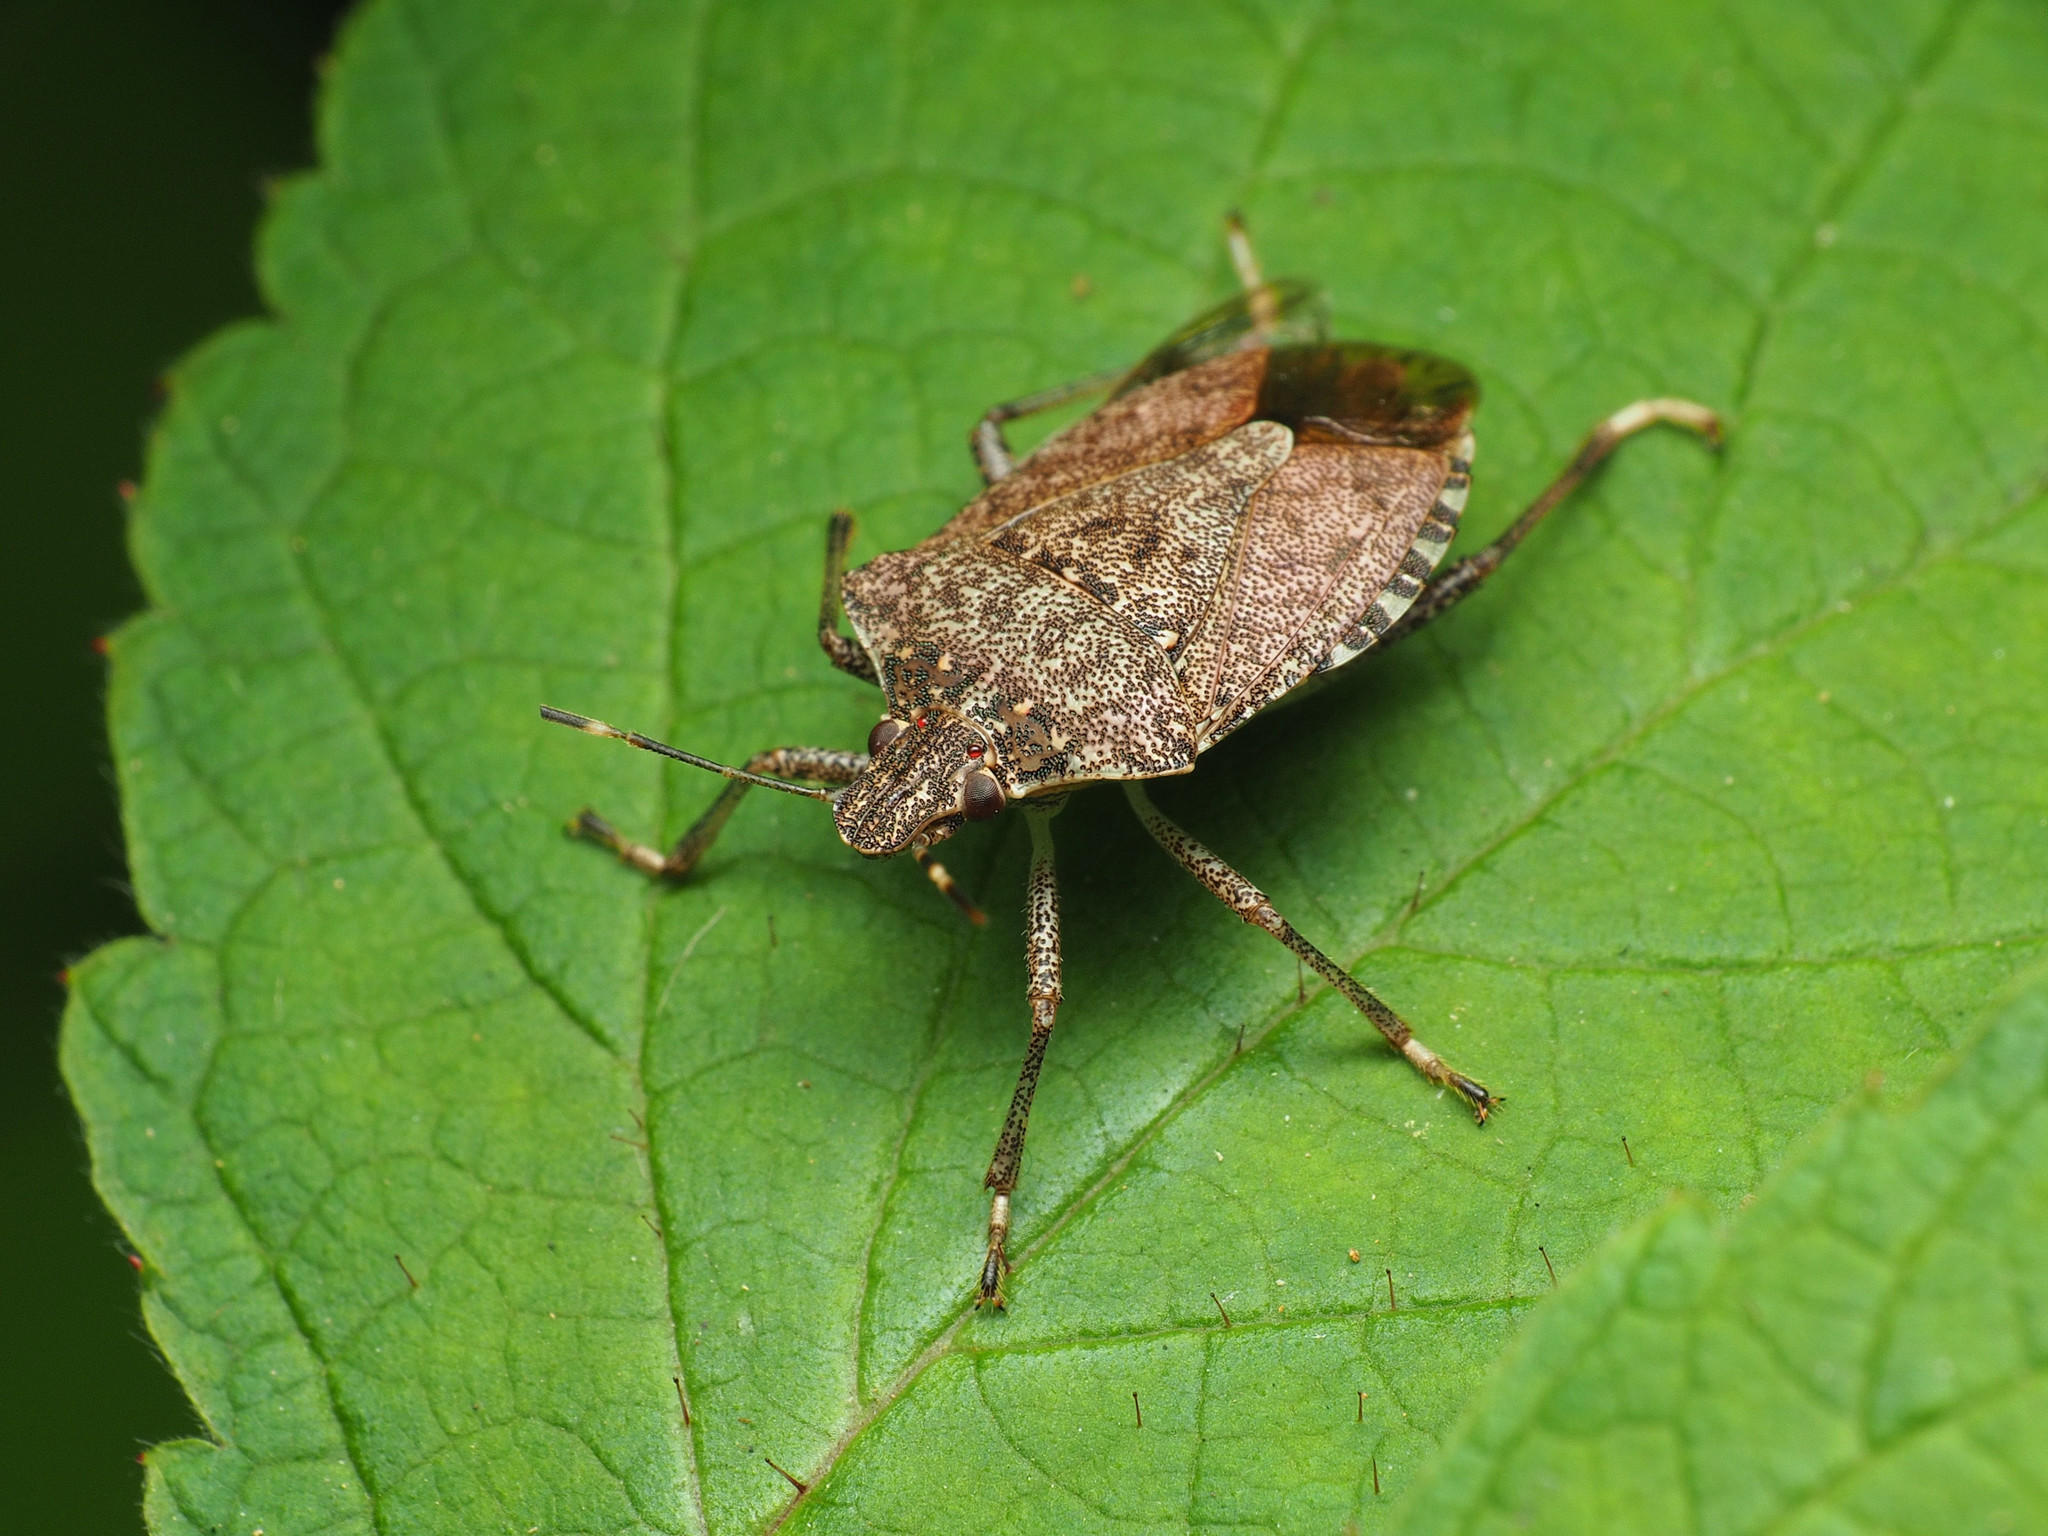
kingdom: Animalia
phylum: Arthropoda
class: Insecta
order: Hemiptera
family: Pentatomidae
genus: Halyomorpha
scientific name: Halyomorpha halys
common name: Brown marmorated stink bug
